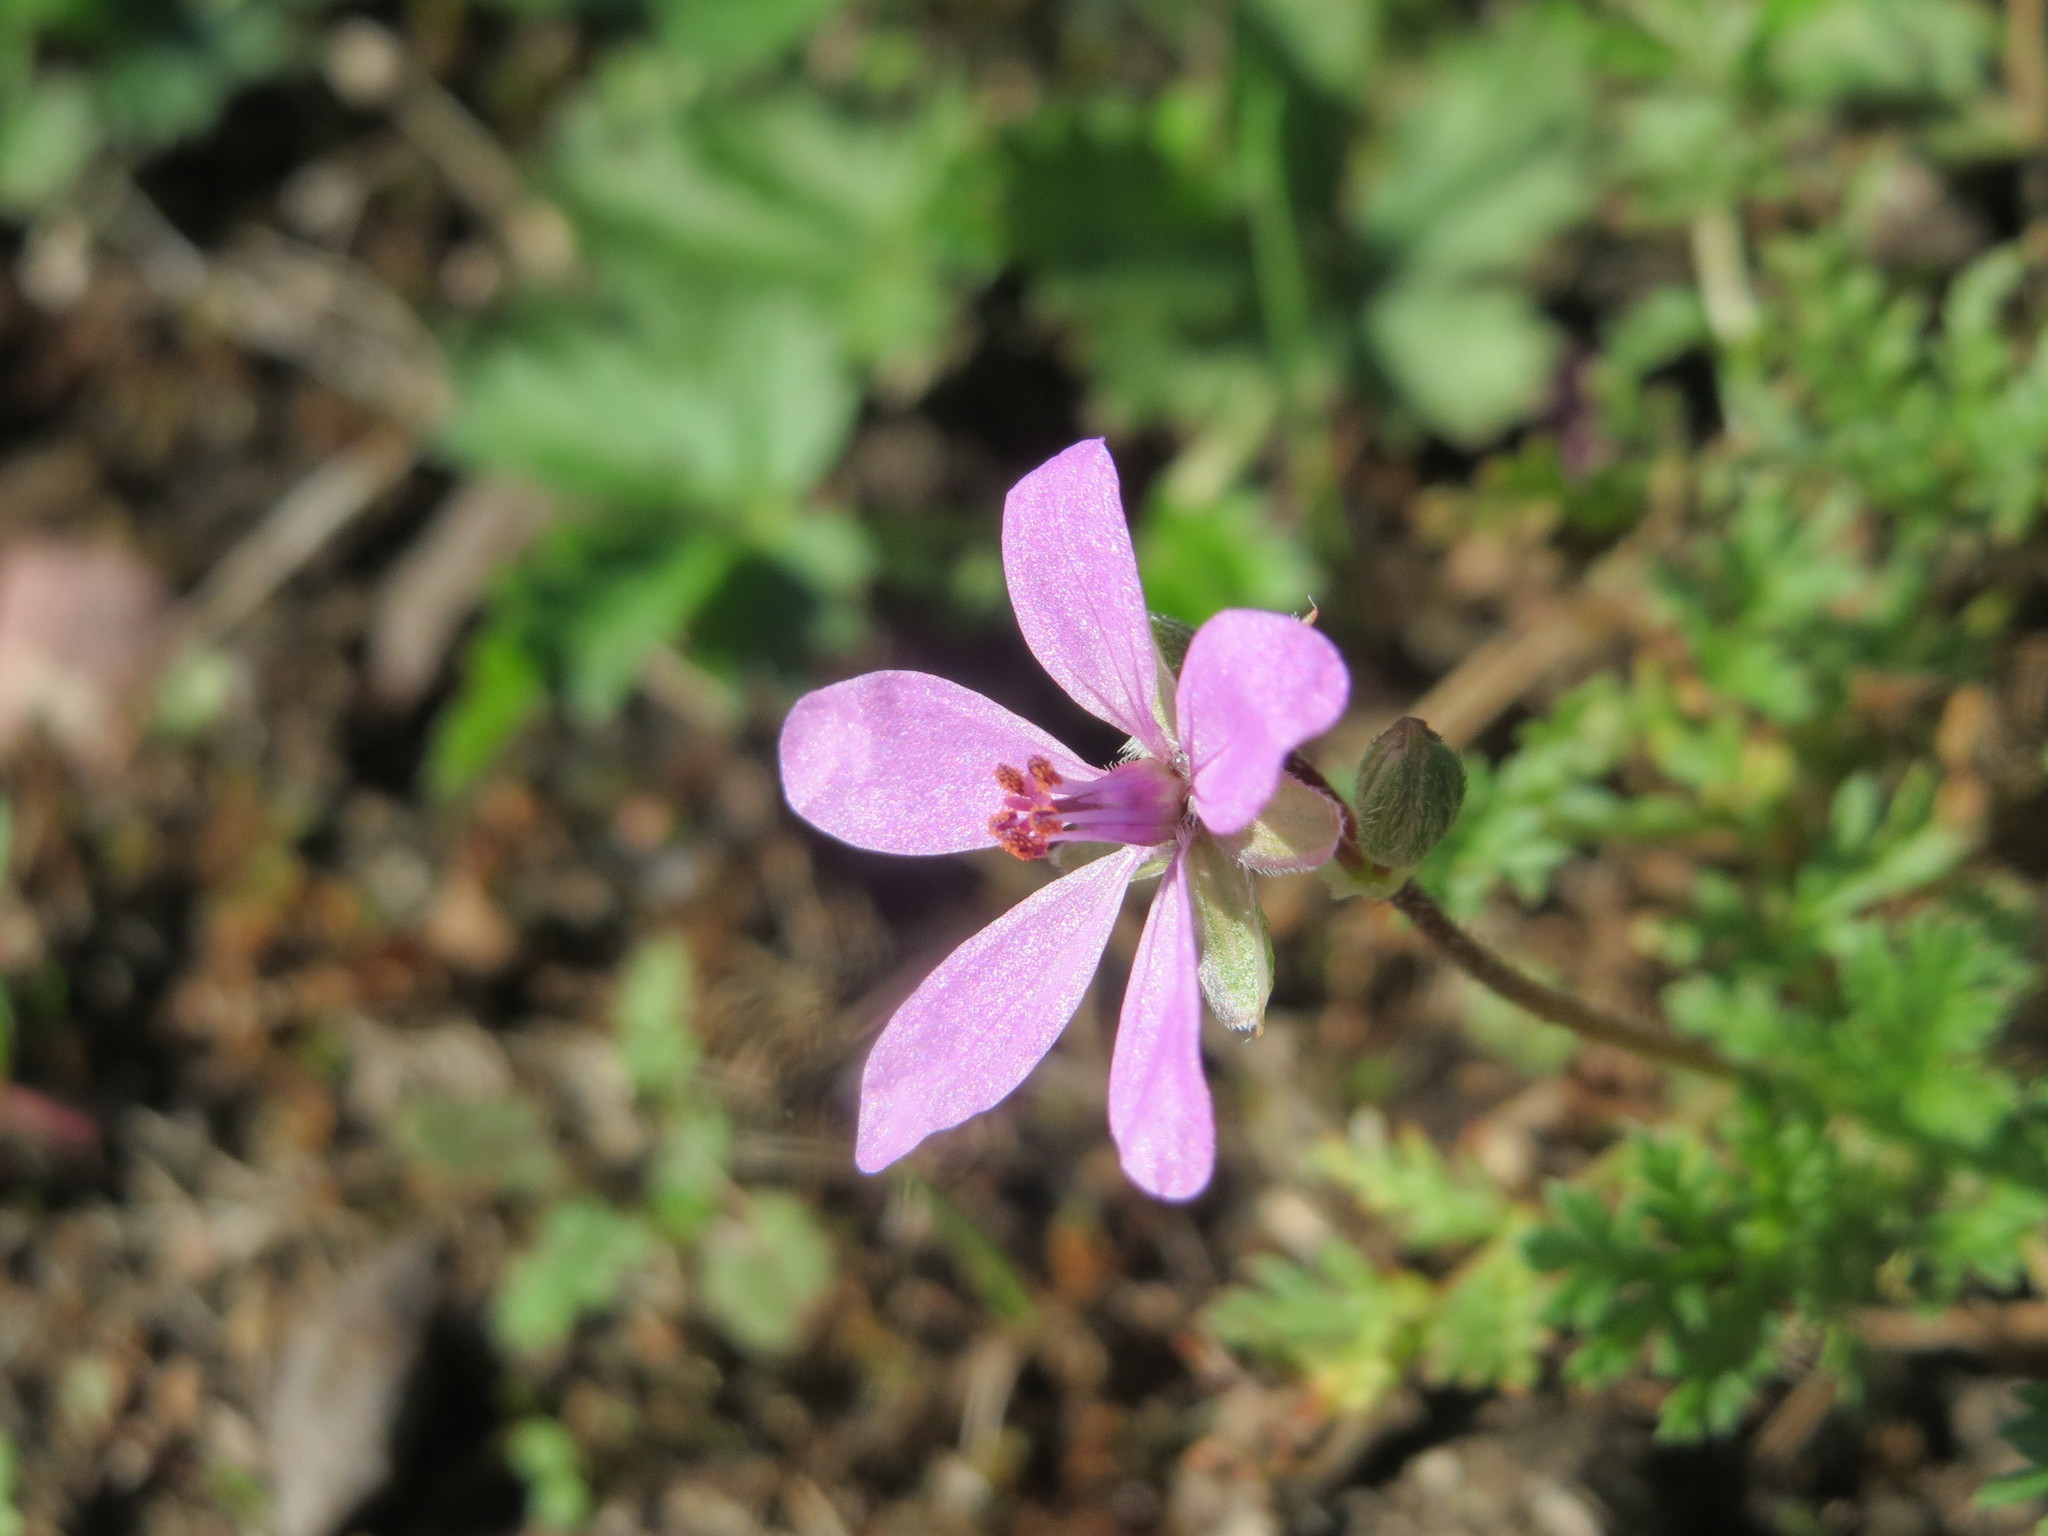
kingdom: Plantae
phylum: Tracheophyta
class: Magnoliopsida
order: Geraniales
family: Geraniaceae
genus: Erodium
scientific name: Erodium cicutarium
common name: Common stork's-bill
